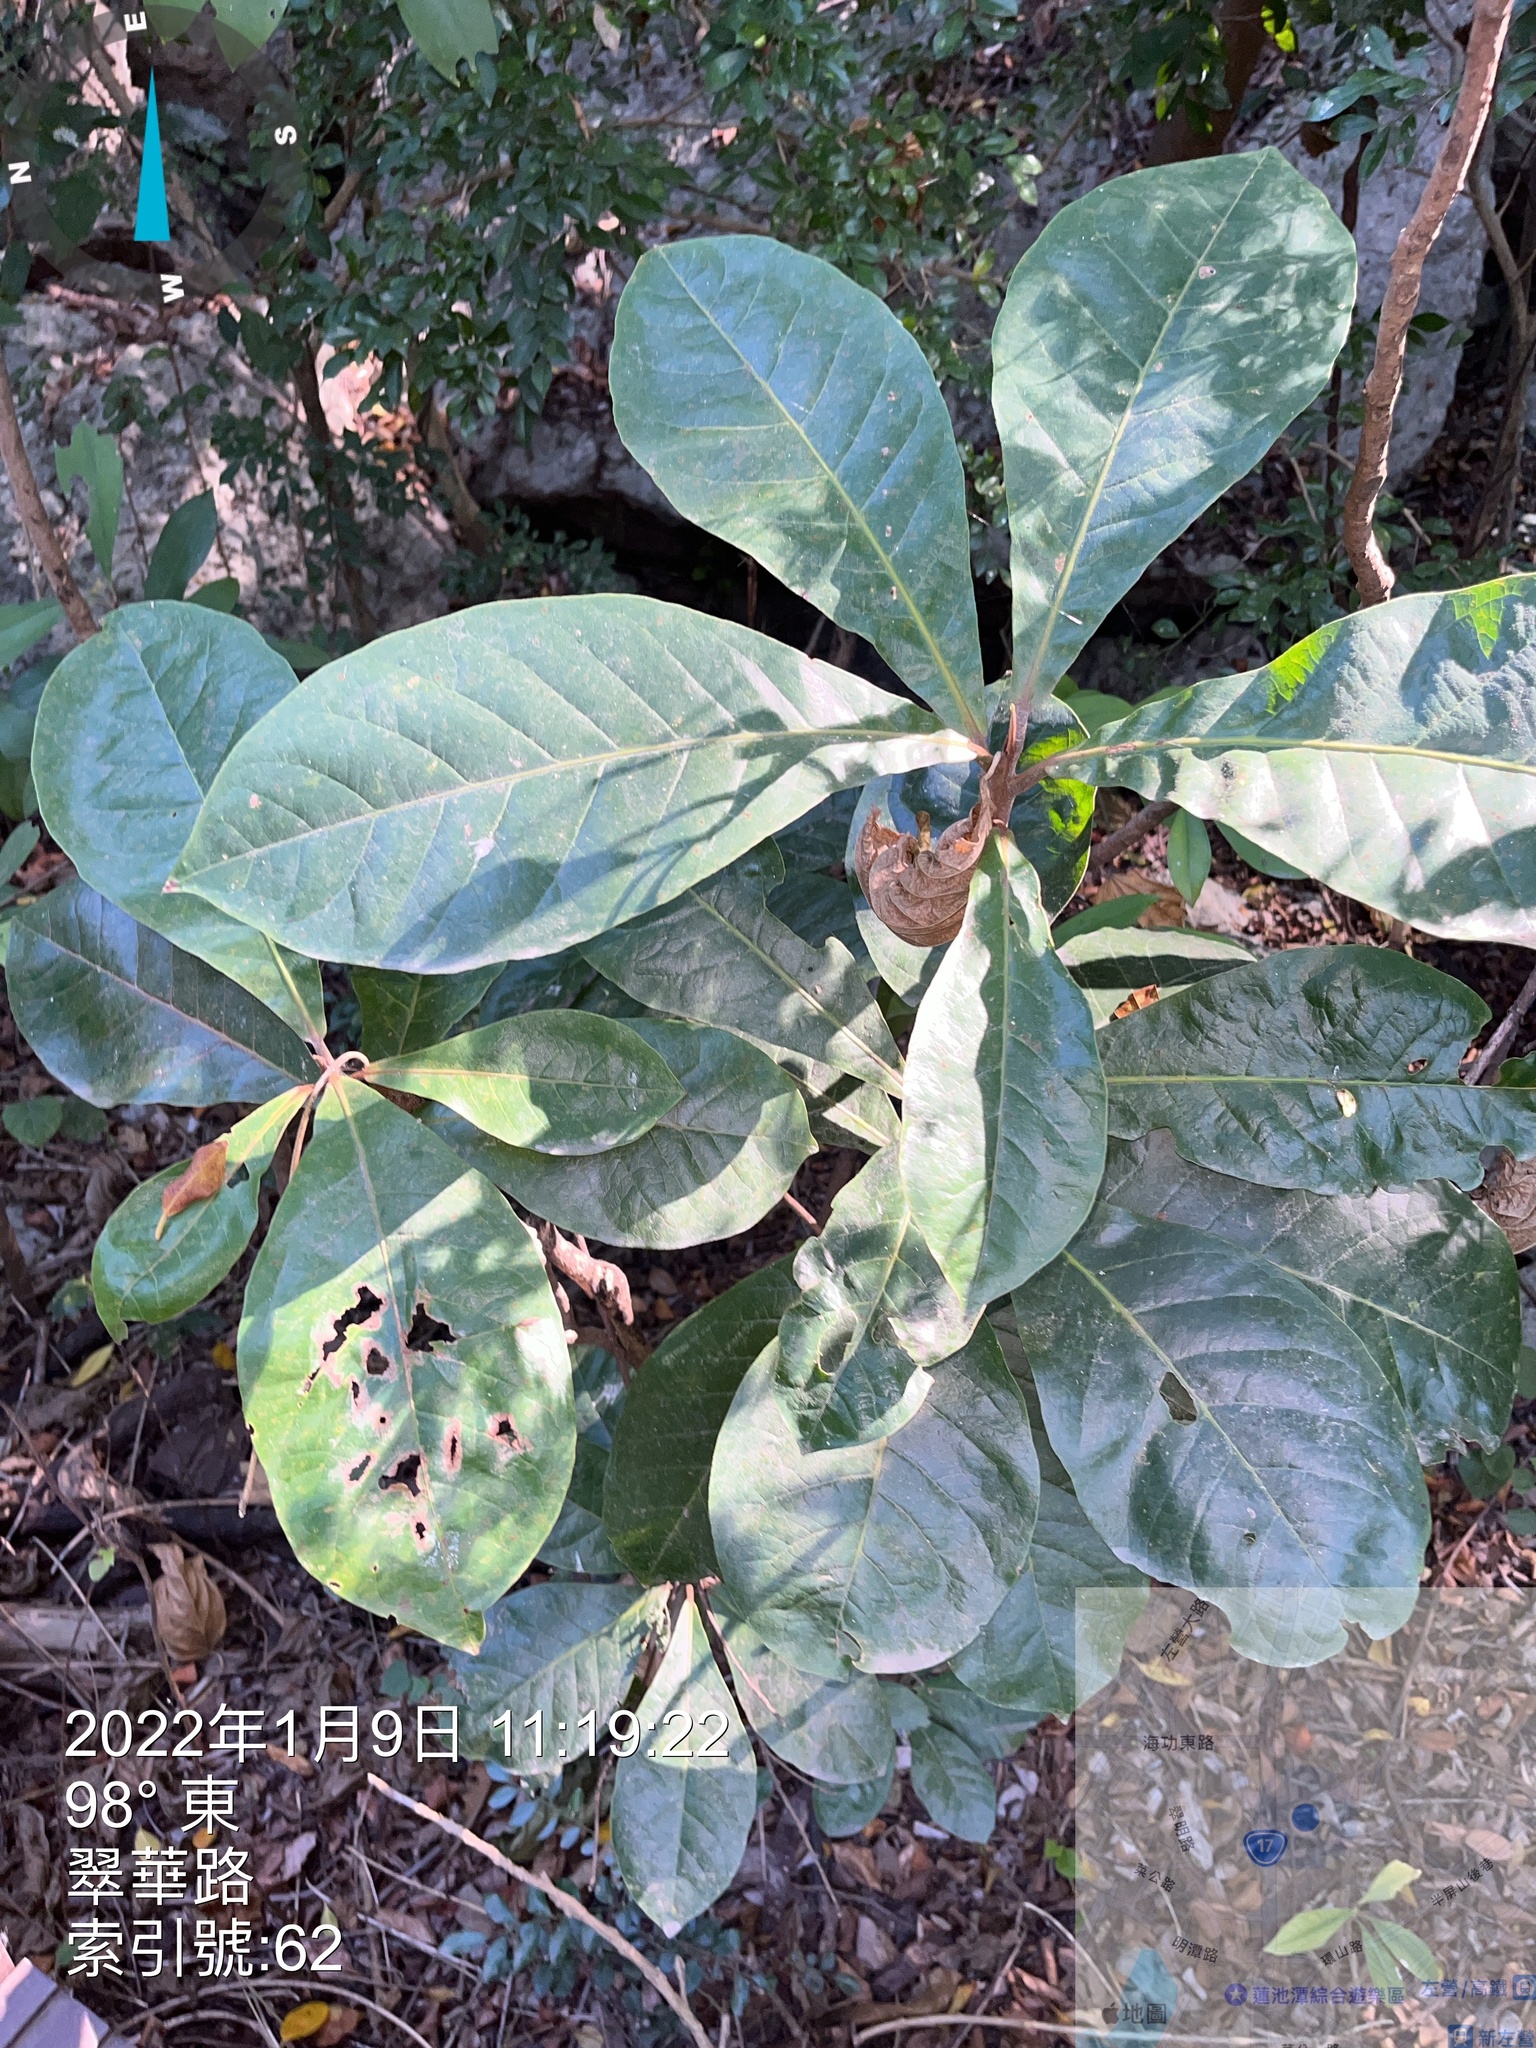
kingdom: Plantae
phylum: Tracheophyta
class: Magnoliopsida
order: Myrtales
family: Combretaceae
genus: Terminalia
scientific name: Terminalia catappa
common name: Tropical almond
